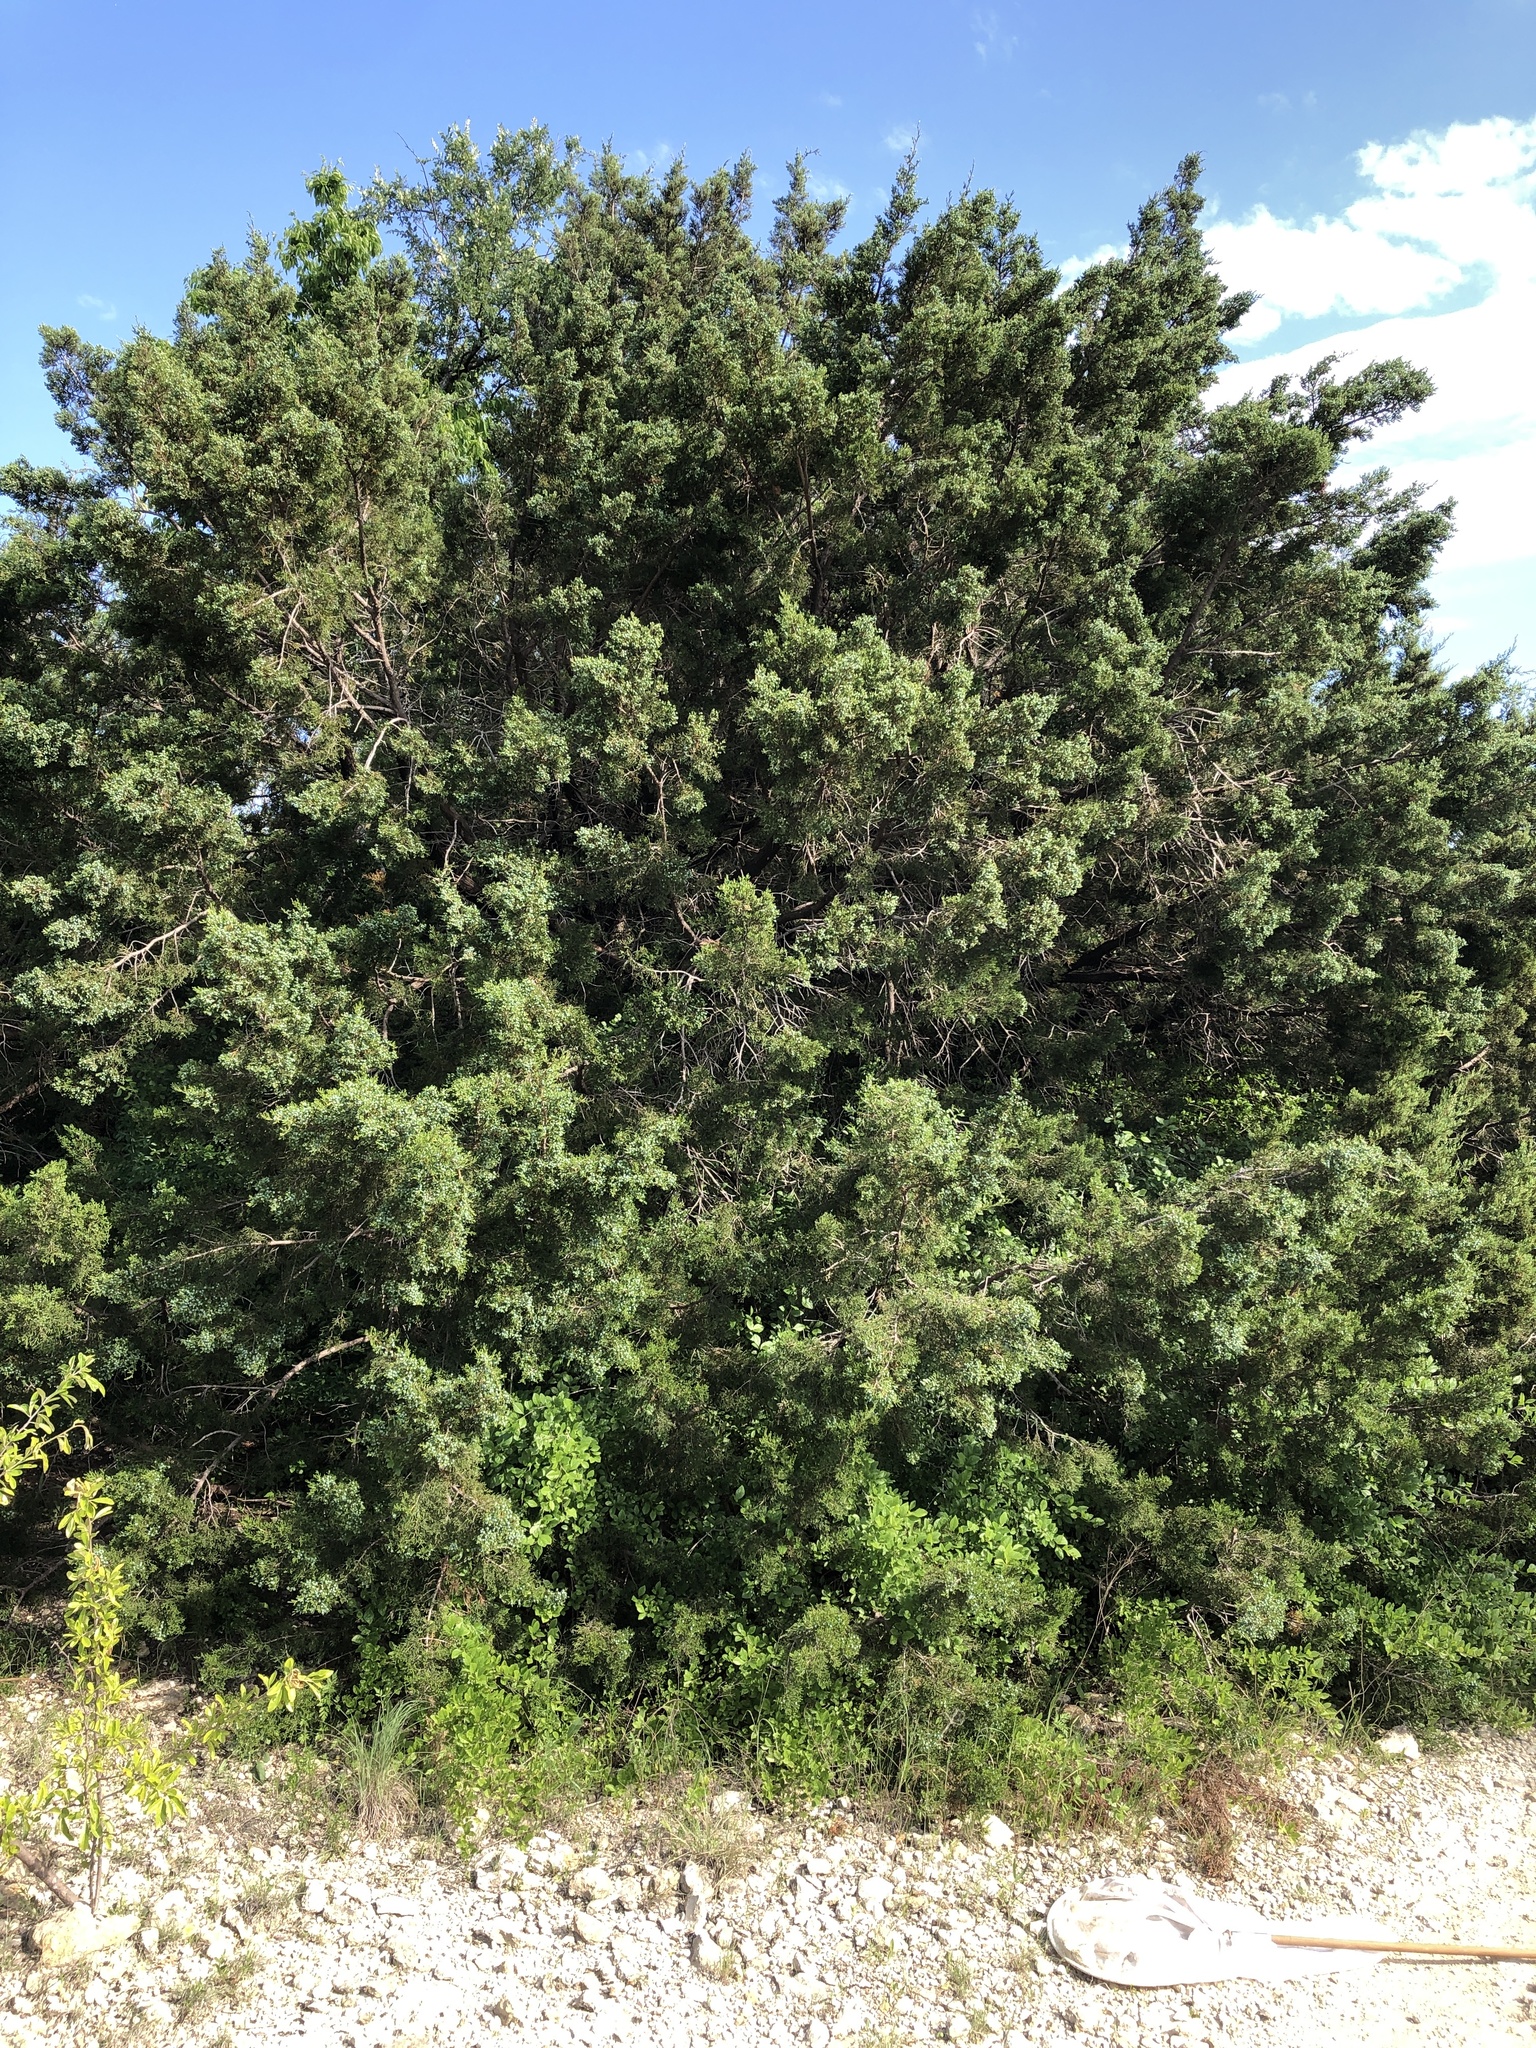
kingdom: Plantae
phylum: Tracheophyta
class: Pinopsida
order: Pinales
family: Cupressaceae
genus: Juniperus
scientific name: Juniperus ashei
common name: Mexican juniper
